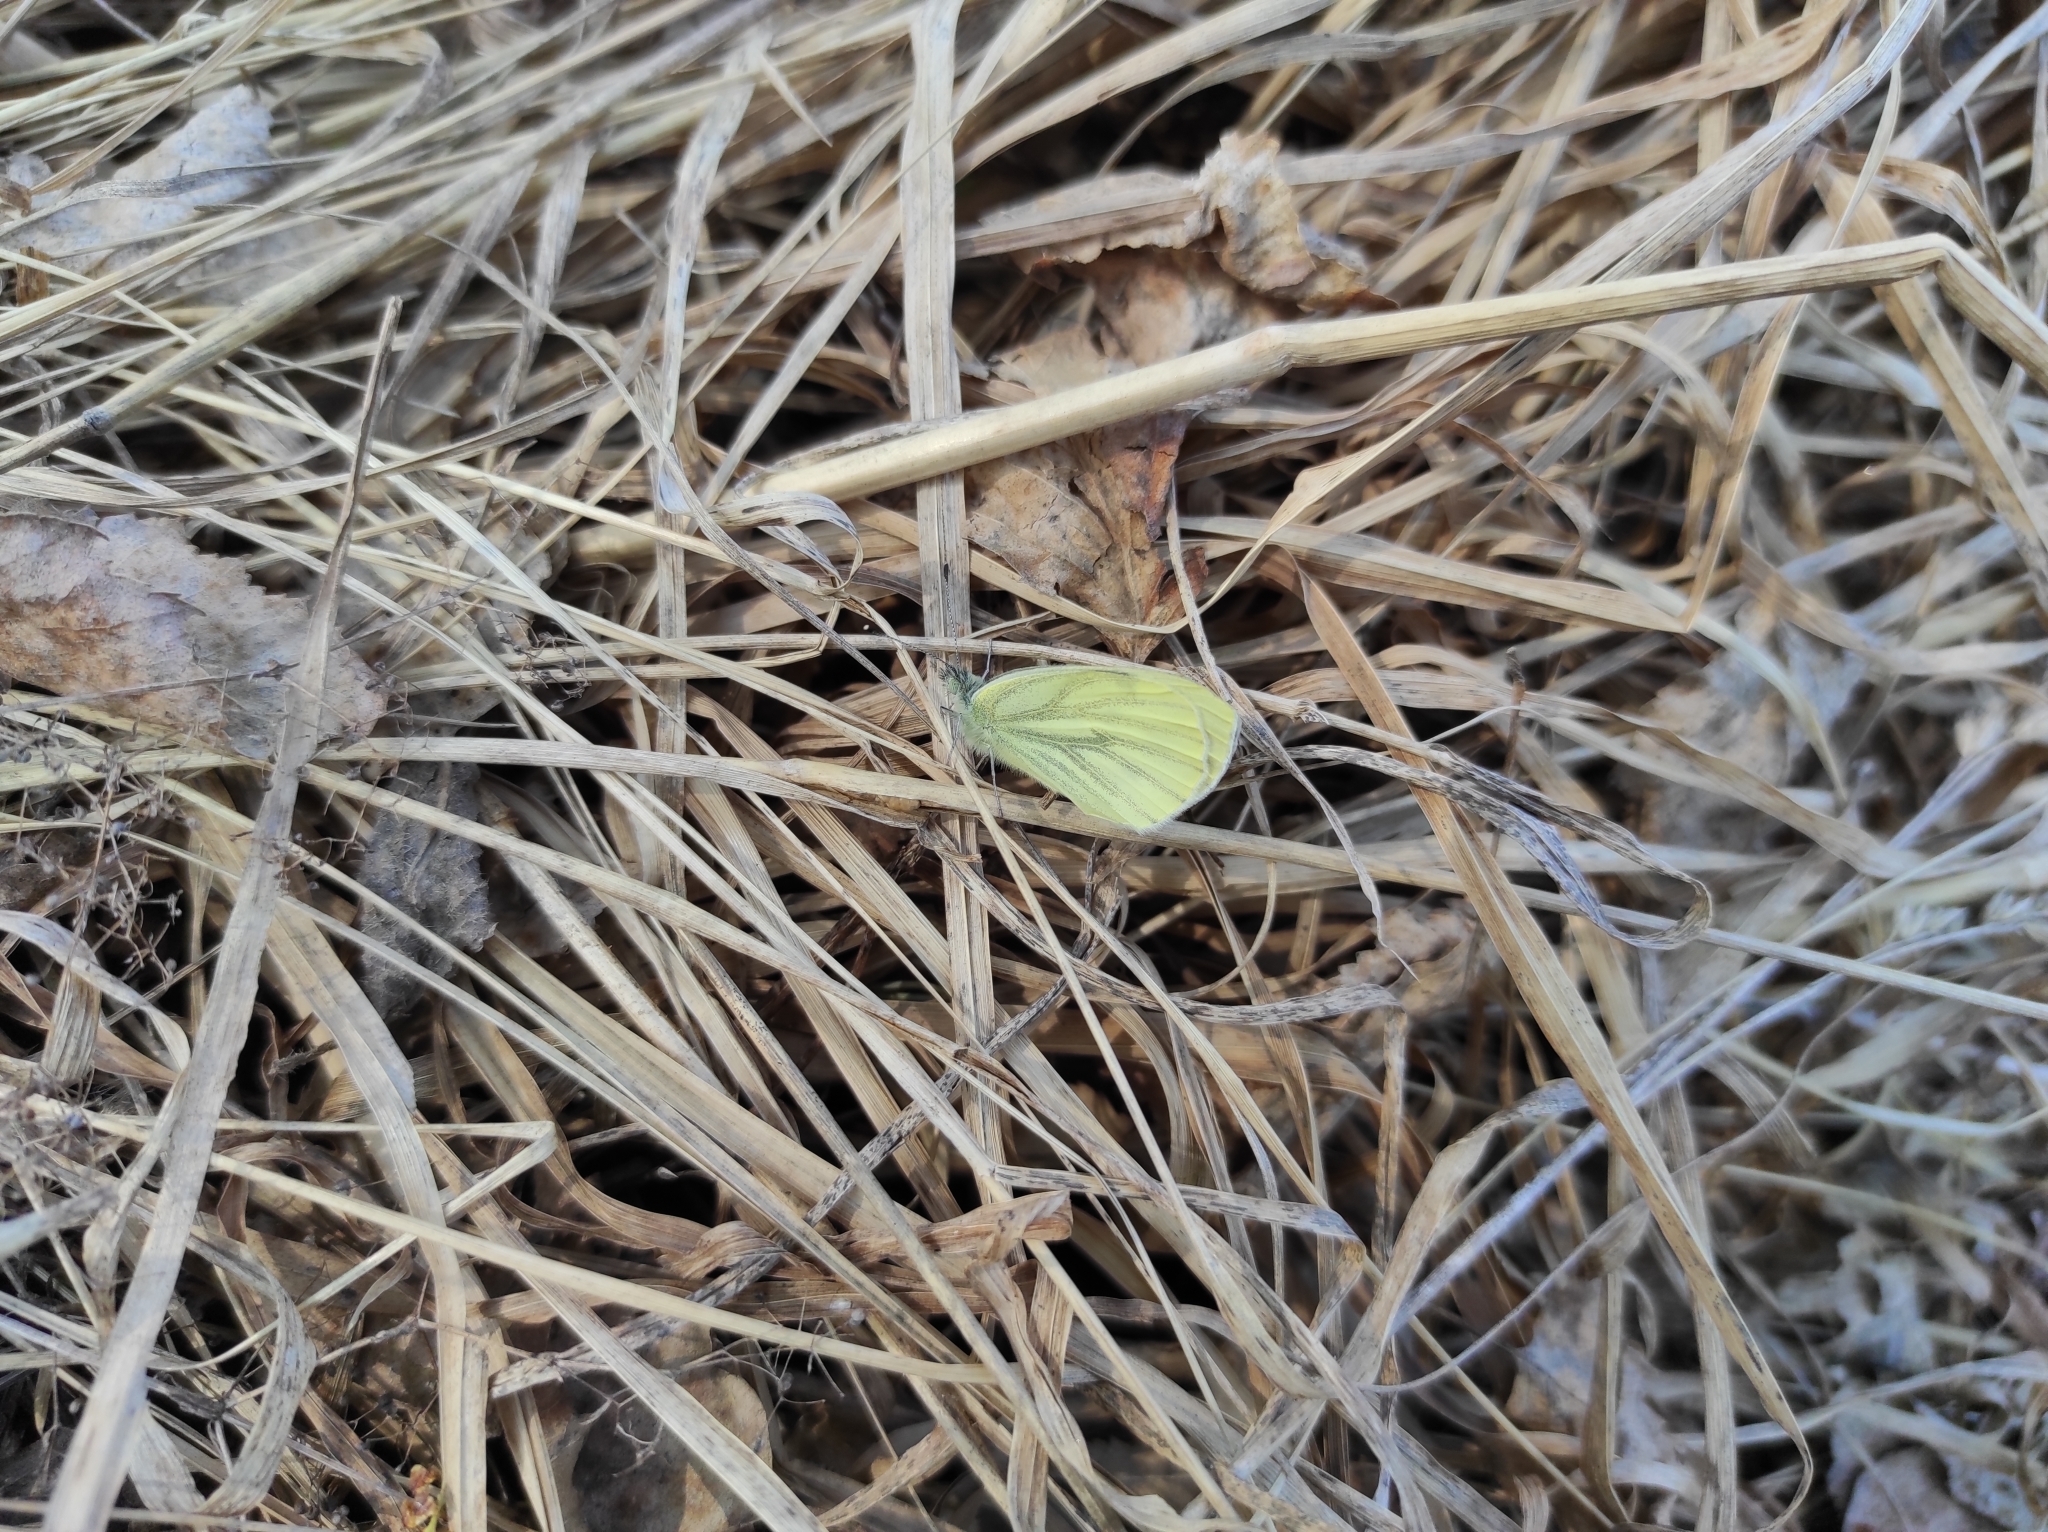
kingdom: Animalia
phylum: Arthropoda
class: Insecta
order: Lepidoptera
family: Pieridae
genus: Pieris
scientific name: Pieris napi
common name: Green-veined white
